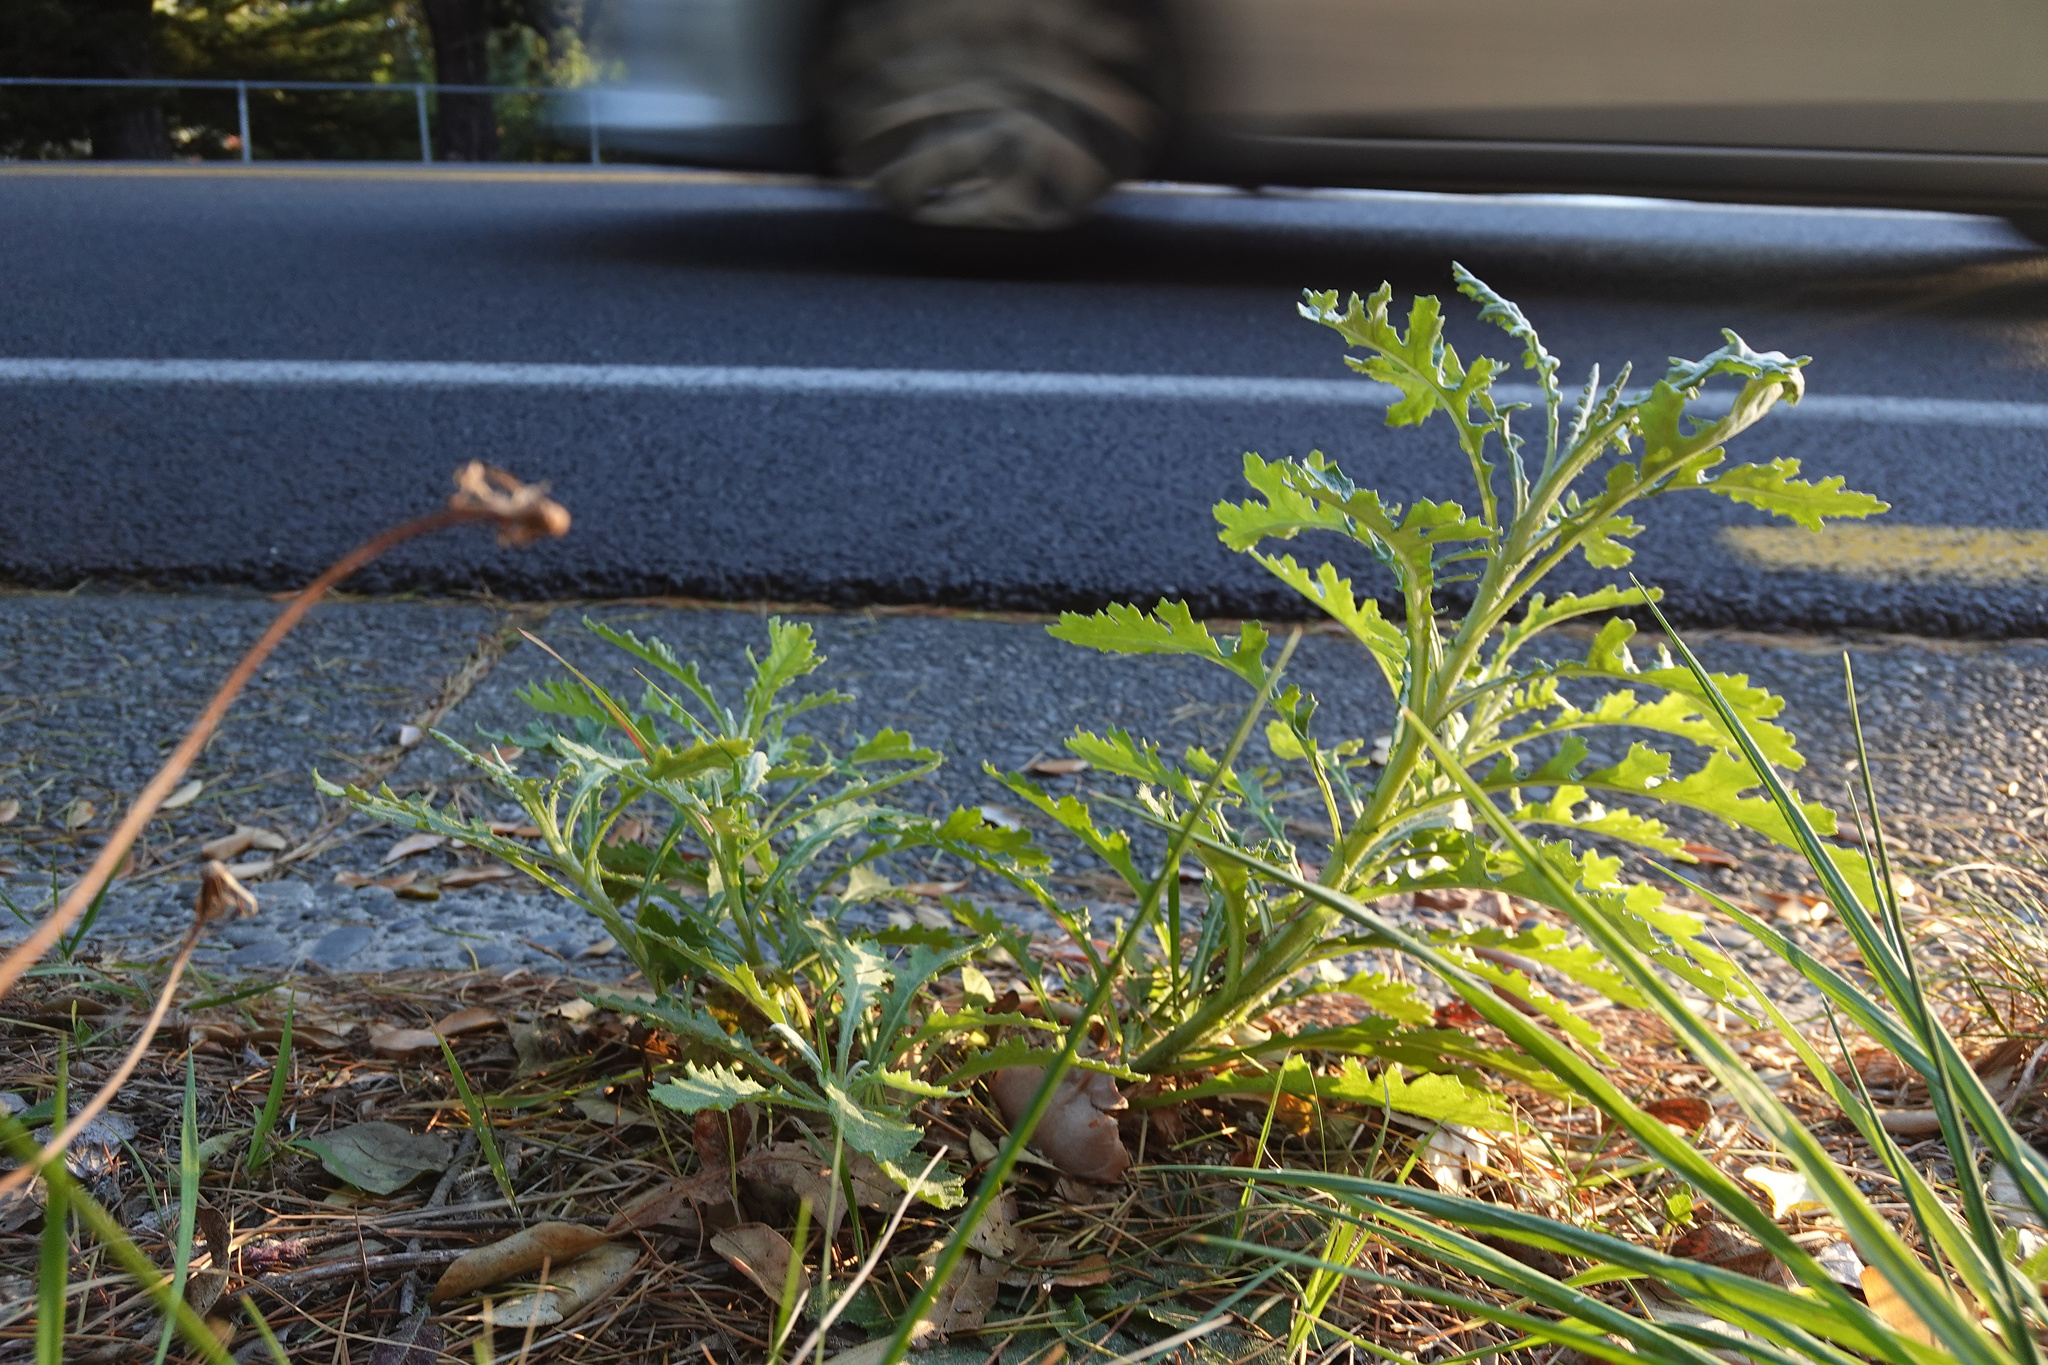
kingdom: Plantae
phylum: Tracheophyta
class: Magnoliopsida
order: Asterales
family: Asteraceae
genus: Senecio
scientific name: Senecio glomeratus
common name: Cutleaf burnweed
